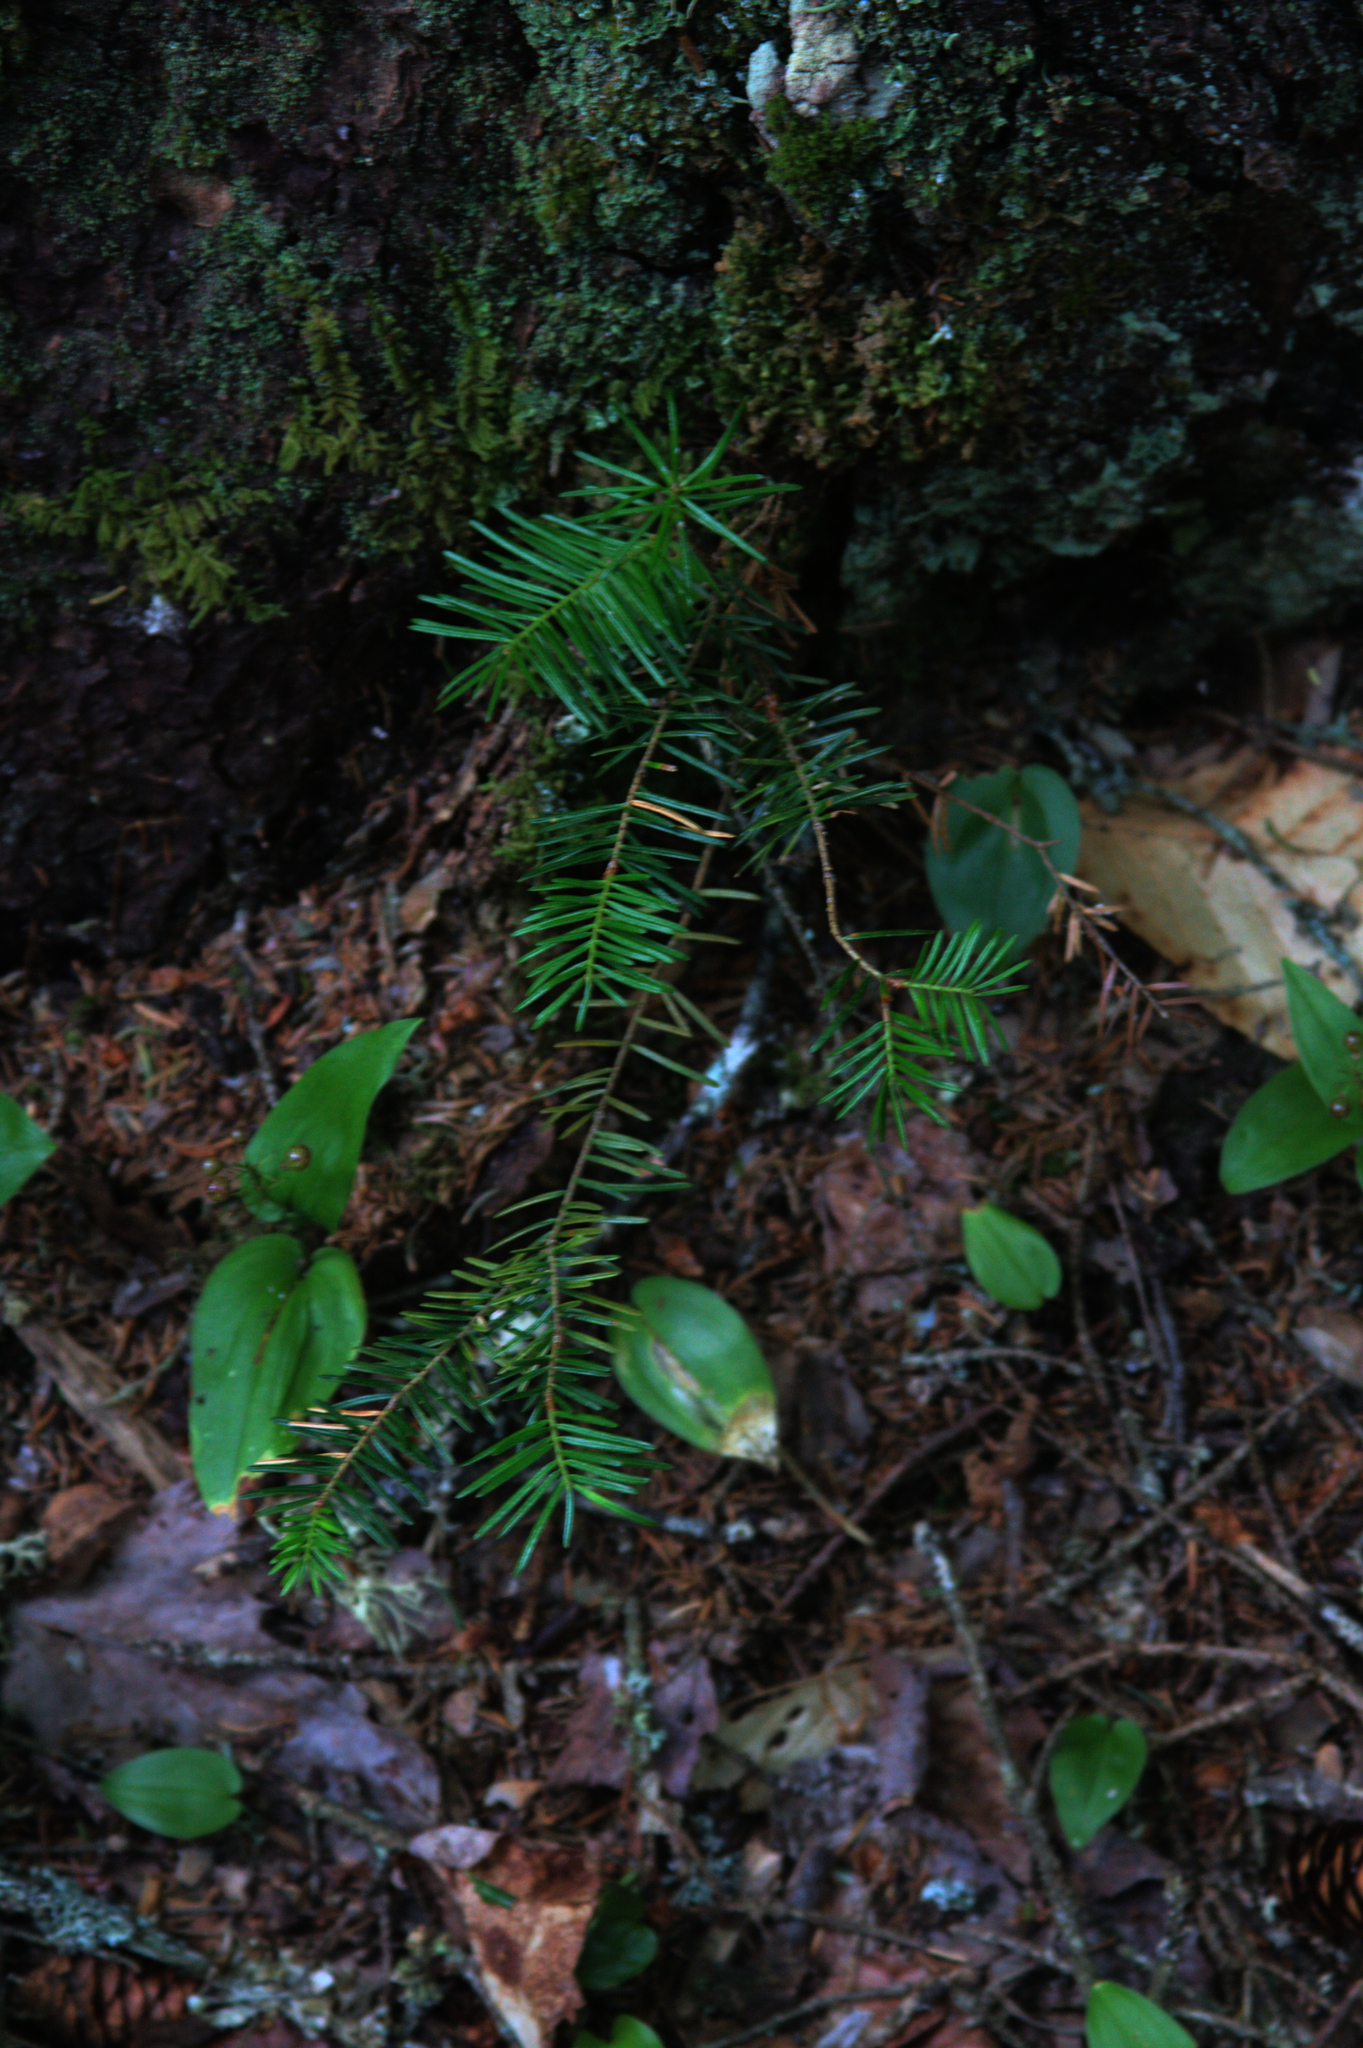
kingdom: Plantae
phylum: Tracheophyta
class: Liliopsida
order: Asparagales
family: Asparagaceae
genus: Maianthemum
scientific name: Maianthemum canadense
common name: False lily-of-the-valley
